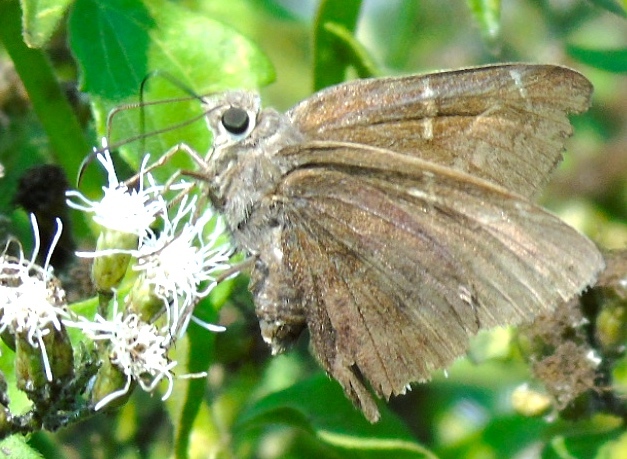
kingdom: Animalia
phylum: Arthropoda
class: Insecta
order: Lepidoptera
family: Hesperiidae
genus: Urbanus
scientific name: Urbanus simplicius
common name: Plain longtail
